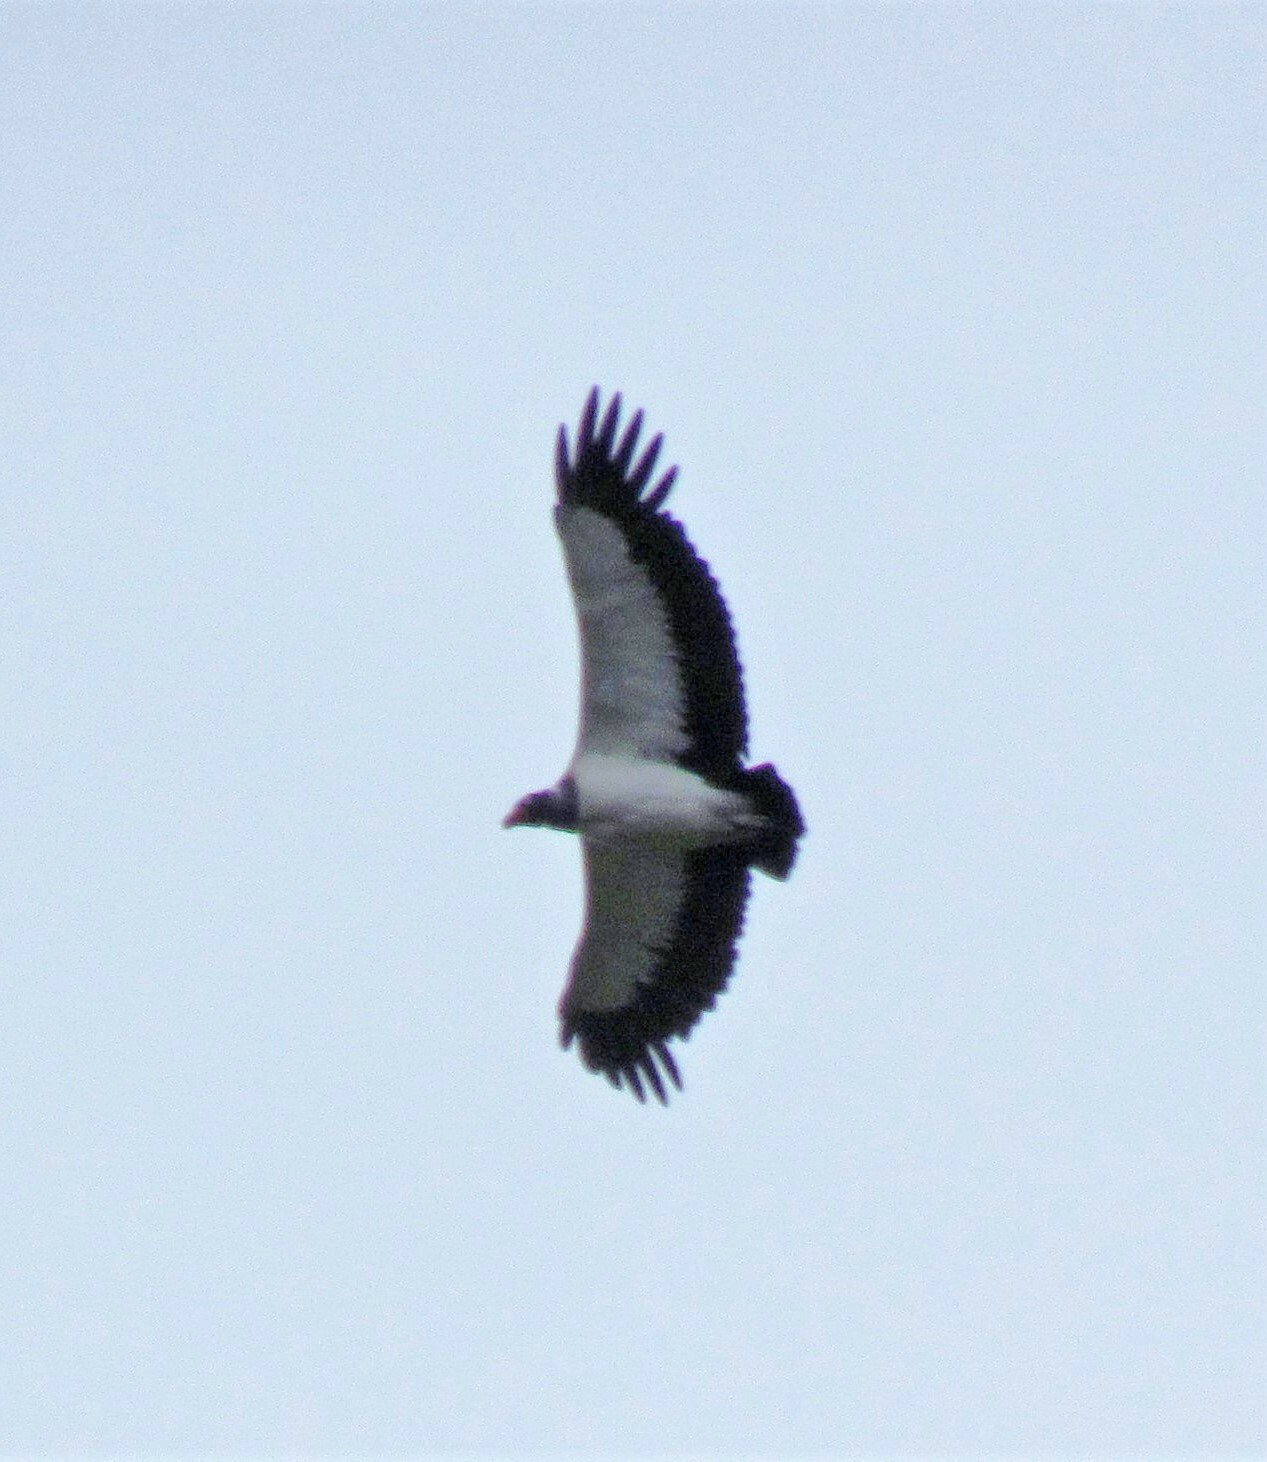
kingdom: Animalia
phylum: Chordata
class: Aves
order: Accipitriformes
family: Cathartidae
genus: Sarcoramphus
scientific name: Sarcoramphus papa
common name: King vulture
